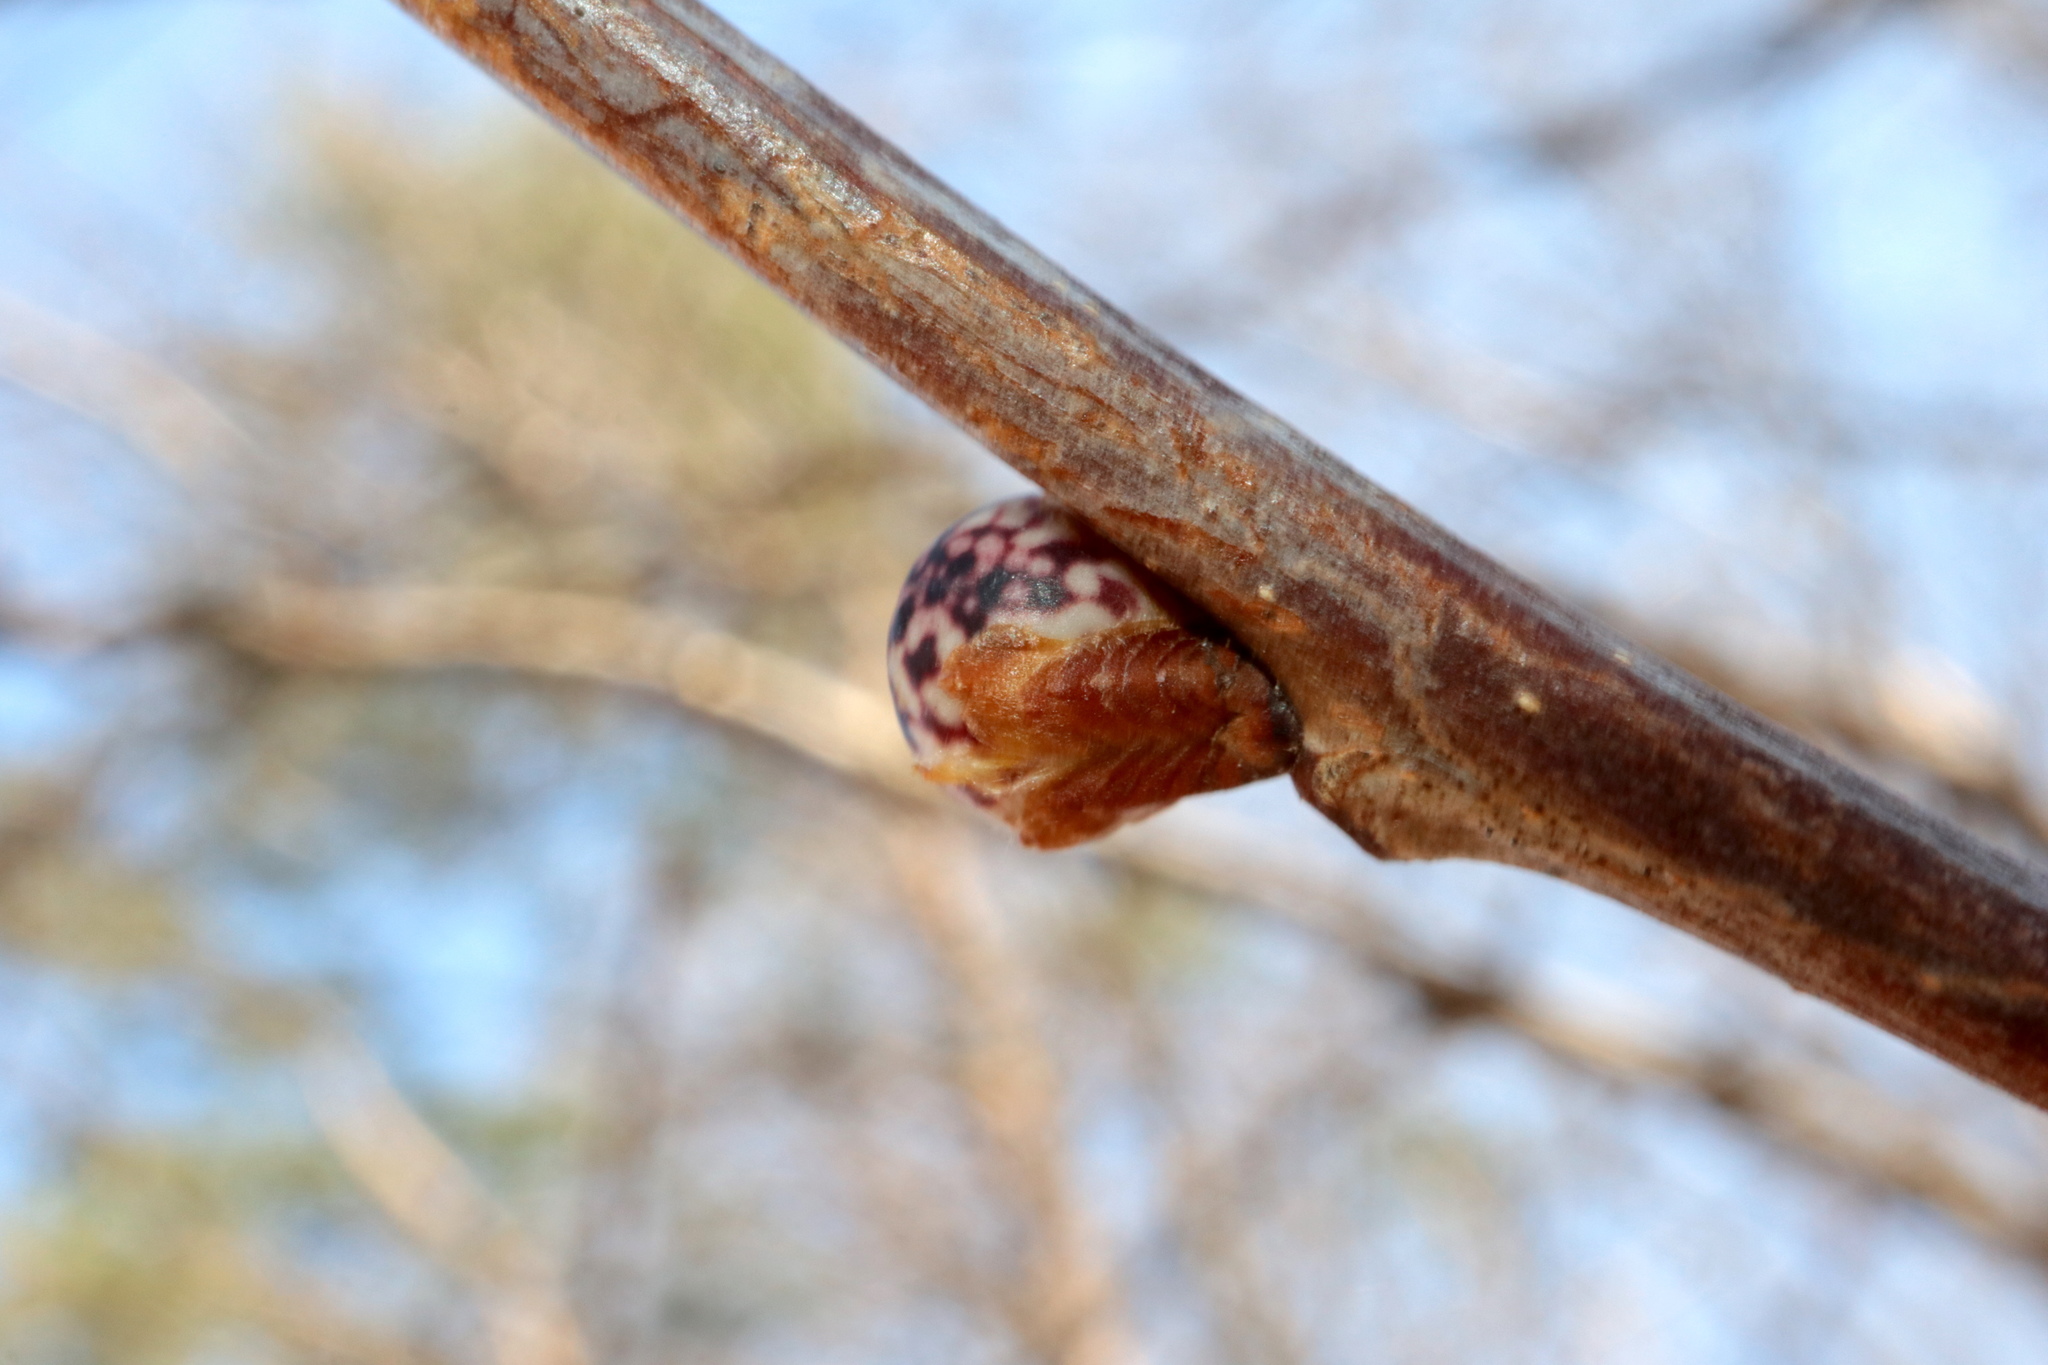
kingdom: Animalia
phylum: Arthropoda
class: Insecta
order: Hymenoptera
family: Cynipidae
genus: Andricus
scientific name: Andricus
